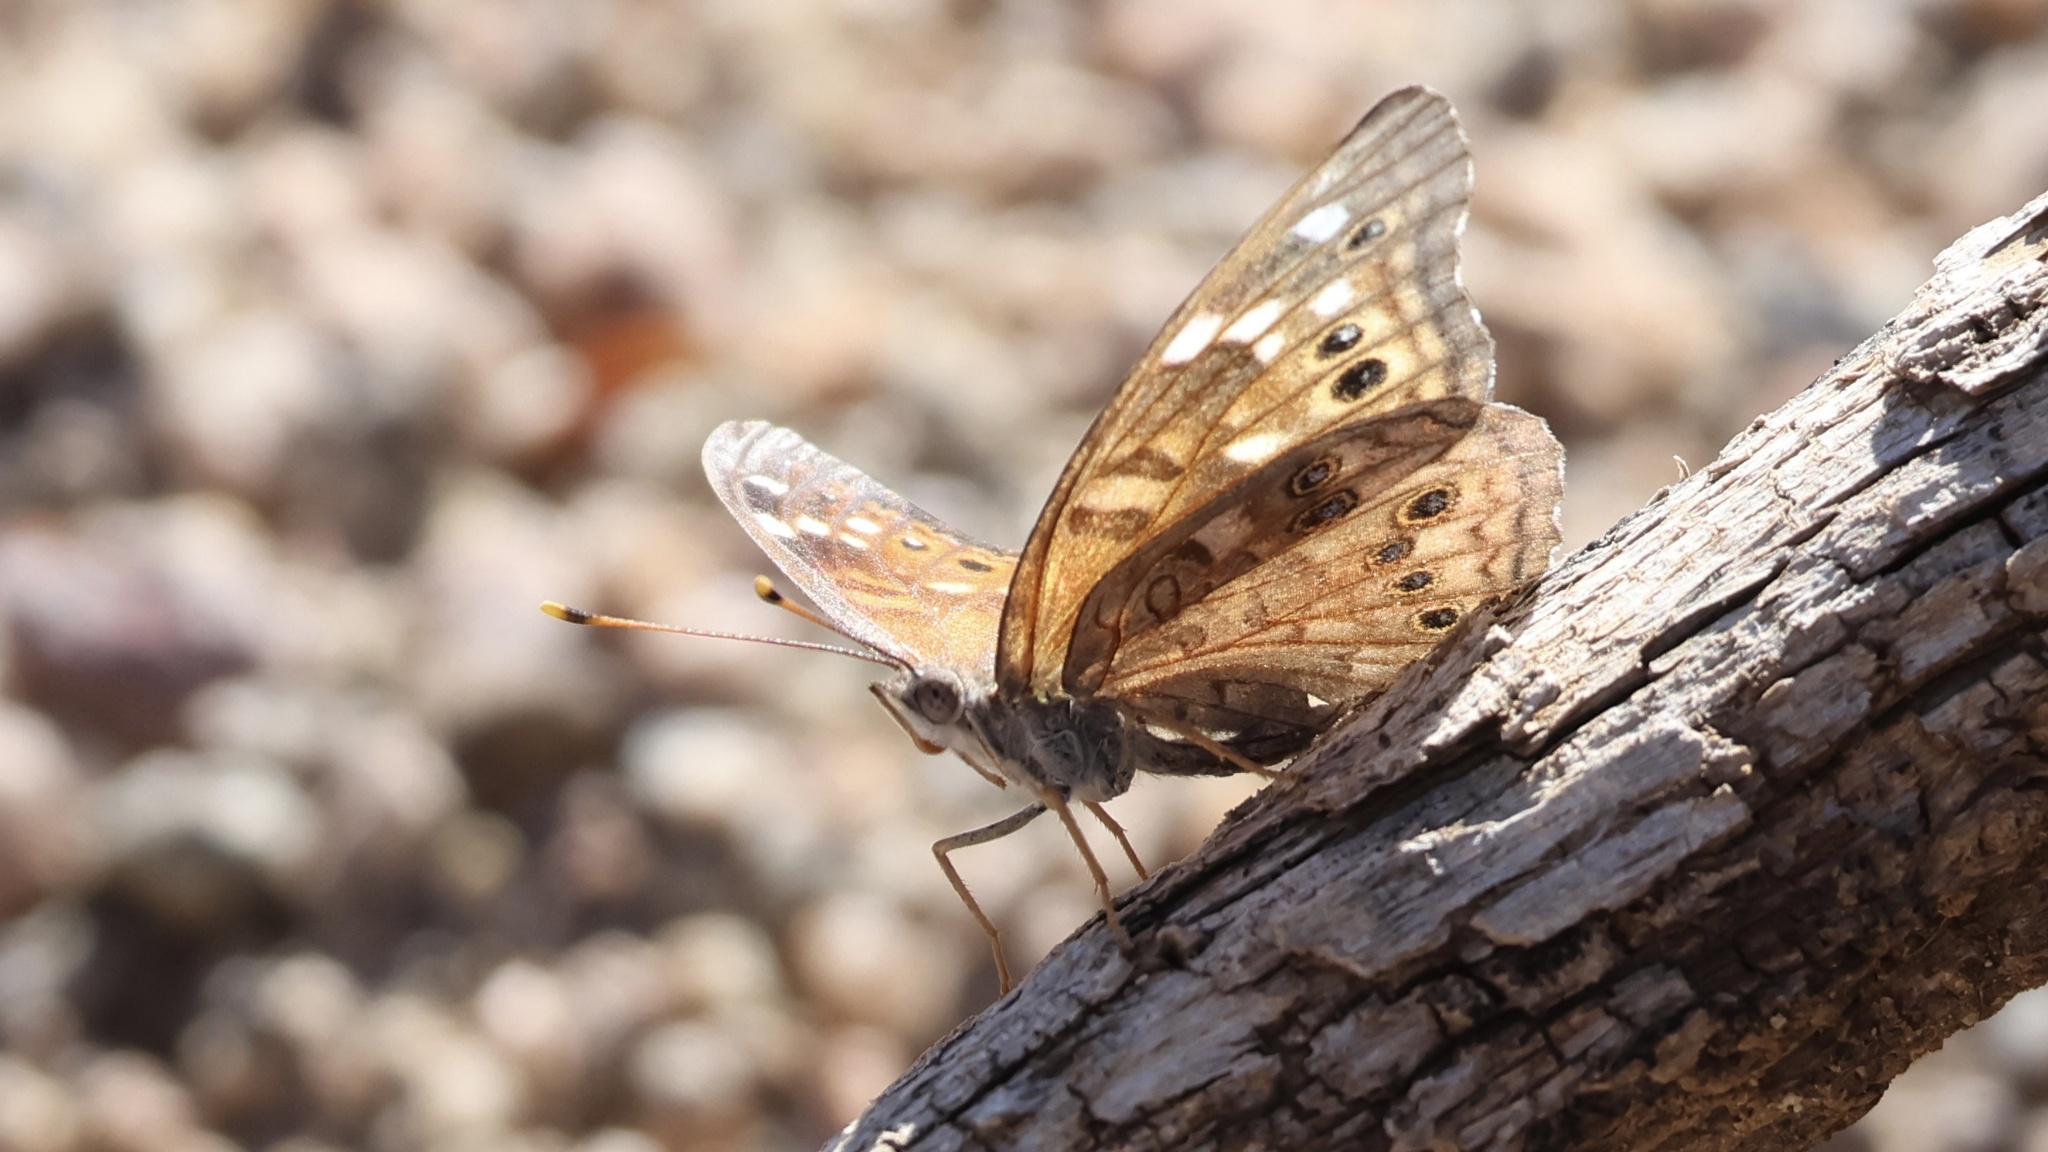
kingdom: Animalia
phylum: Arthropoda
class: Insecta
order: Lepidoptera
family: Nymphalidae
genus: Asterocampa
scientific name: Asterocampa leilia
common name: Empress leilia
